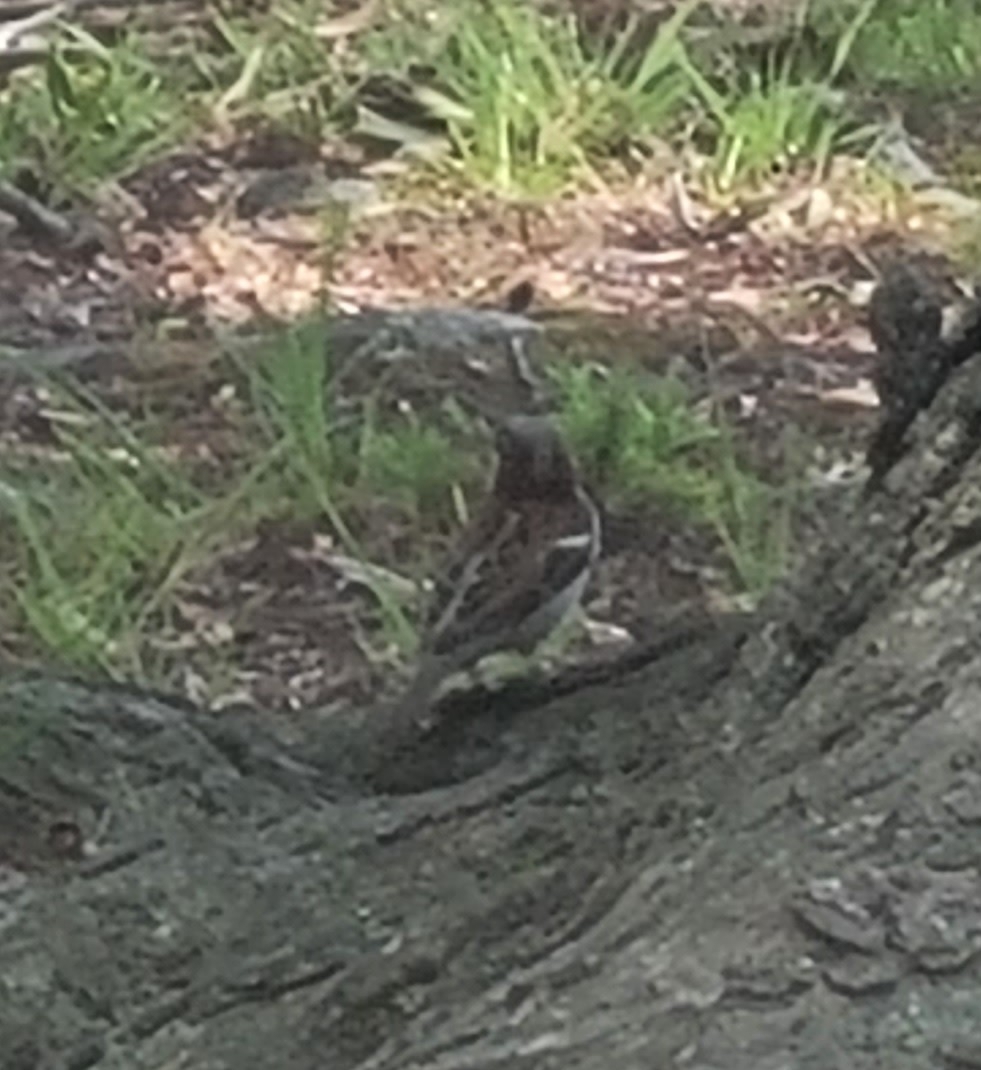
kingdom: Animalia
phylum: Chordata
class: Aves
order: Passeriformes
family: Passeridae
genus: Passer
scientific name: Passer domesticus
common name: House sparrow
